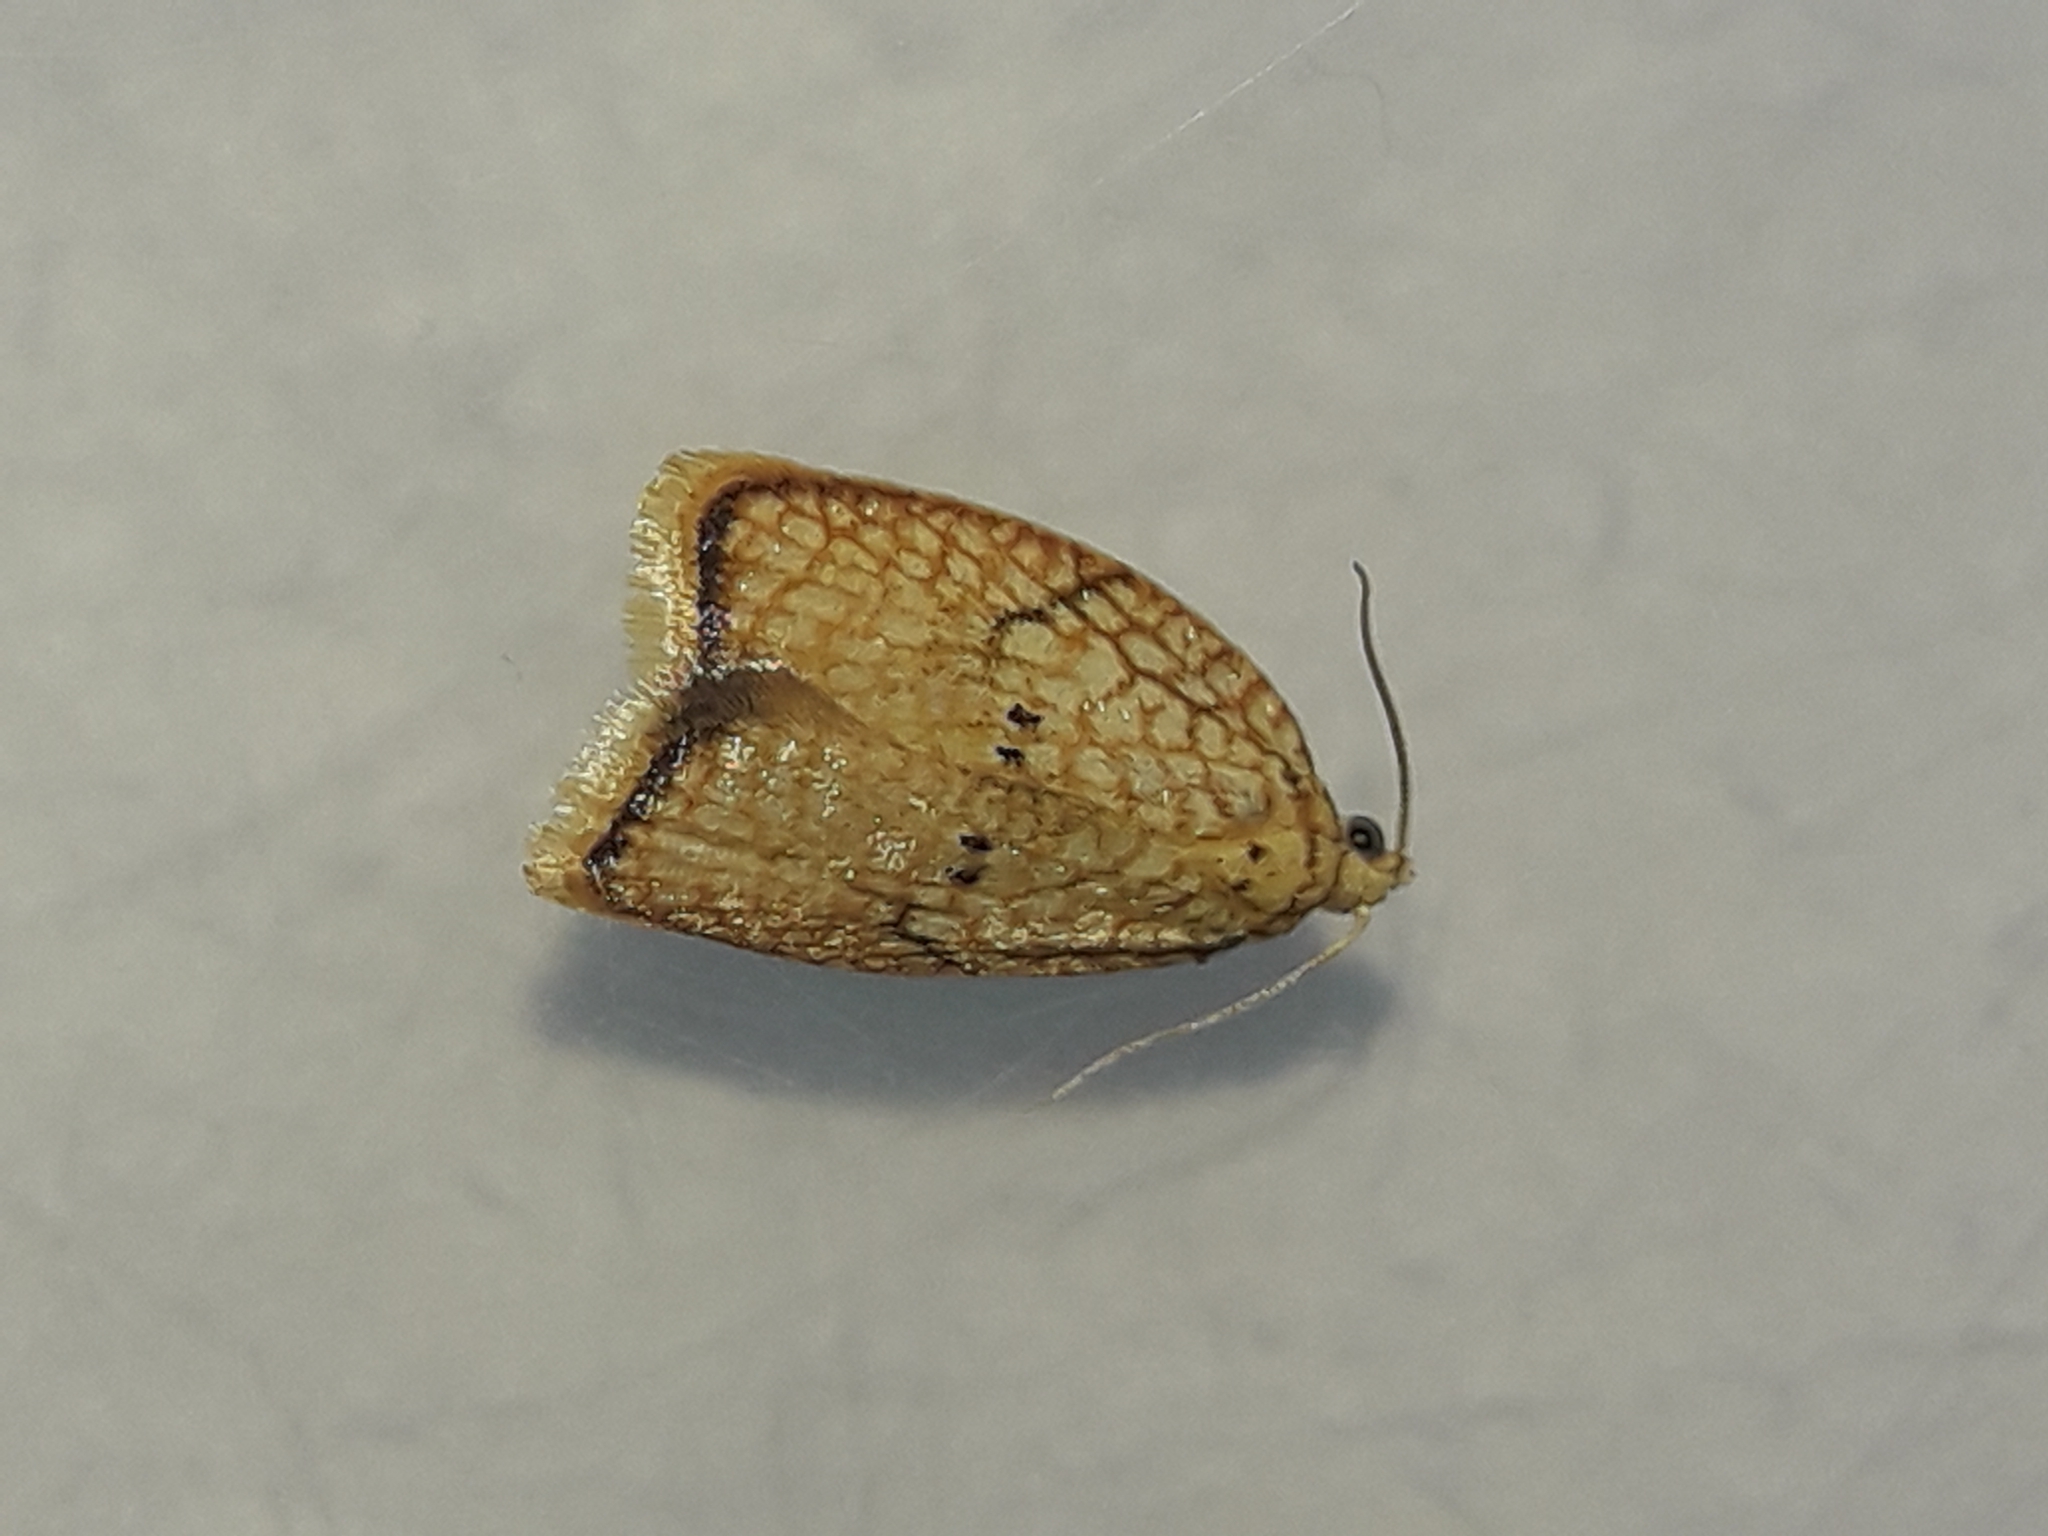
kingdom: Animalia
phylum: Arthropoda
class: Insecta
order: Lepidoptera
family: Tortricidae
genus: Acleris
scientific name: Acleris forsskaleana
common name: Maple button
